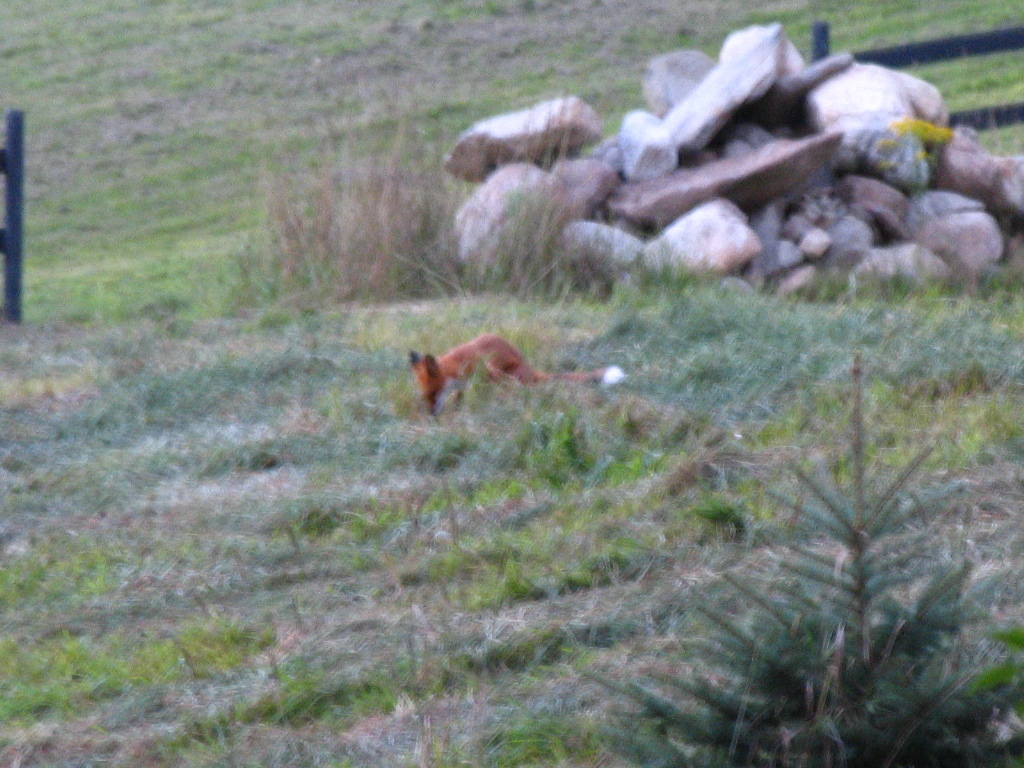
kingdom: Animalia
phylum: Chordata
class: Mammalia
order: Carnivora
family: Canidae
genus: Vulpes
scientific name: Vulpes vulpes
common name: Red fox
